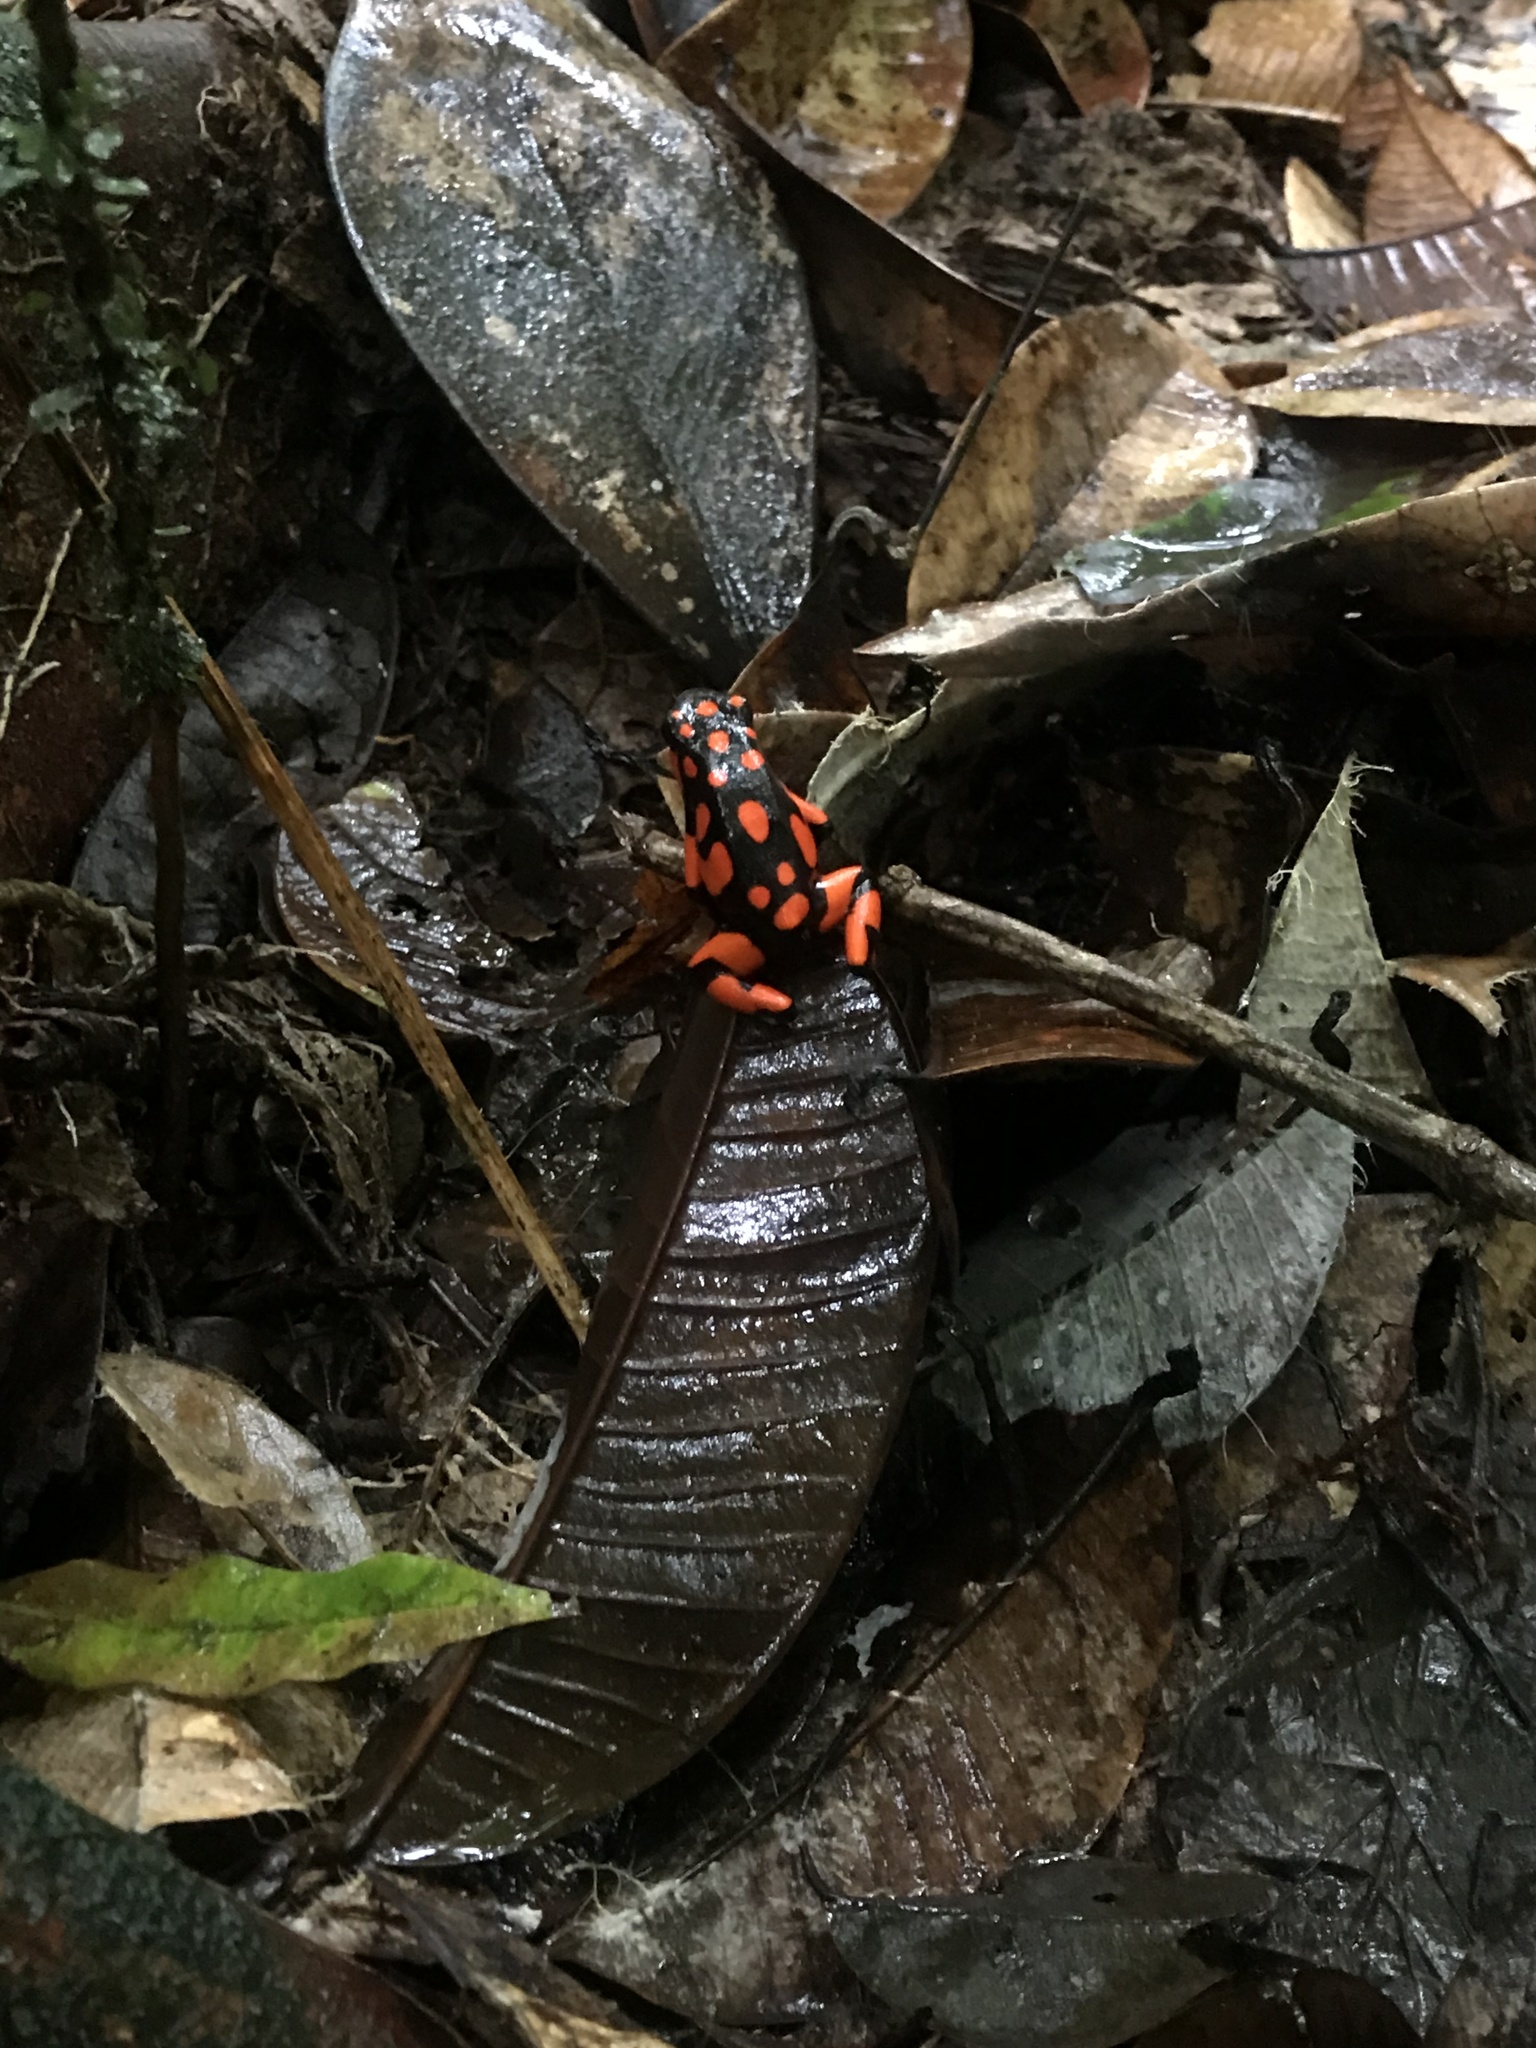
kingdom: Animalia
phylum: Chordata
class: Amphibia
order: Anura
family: Dendrobatidae
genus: Oophaga
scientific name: Oophaga solanensis
